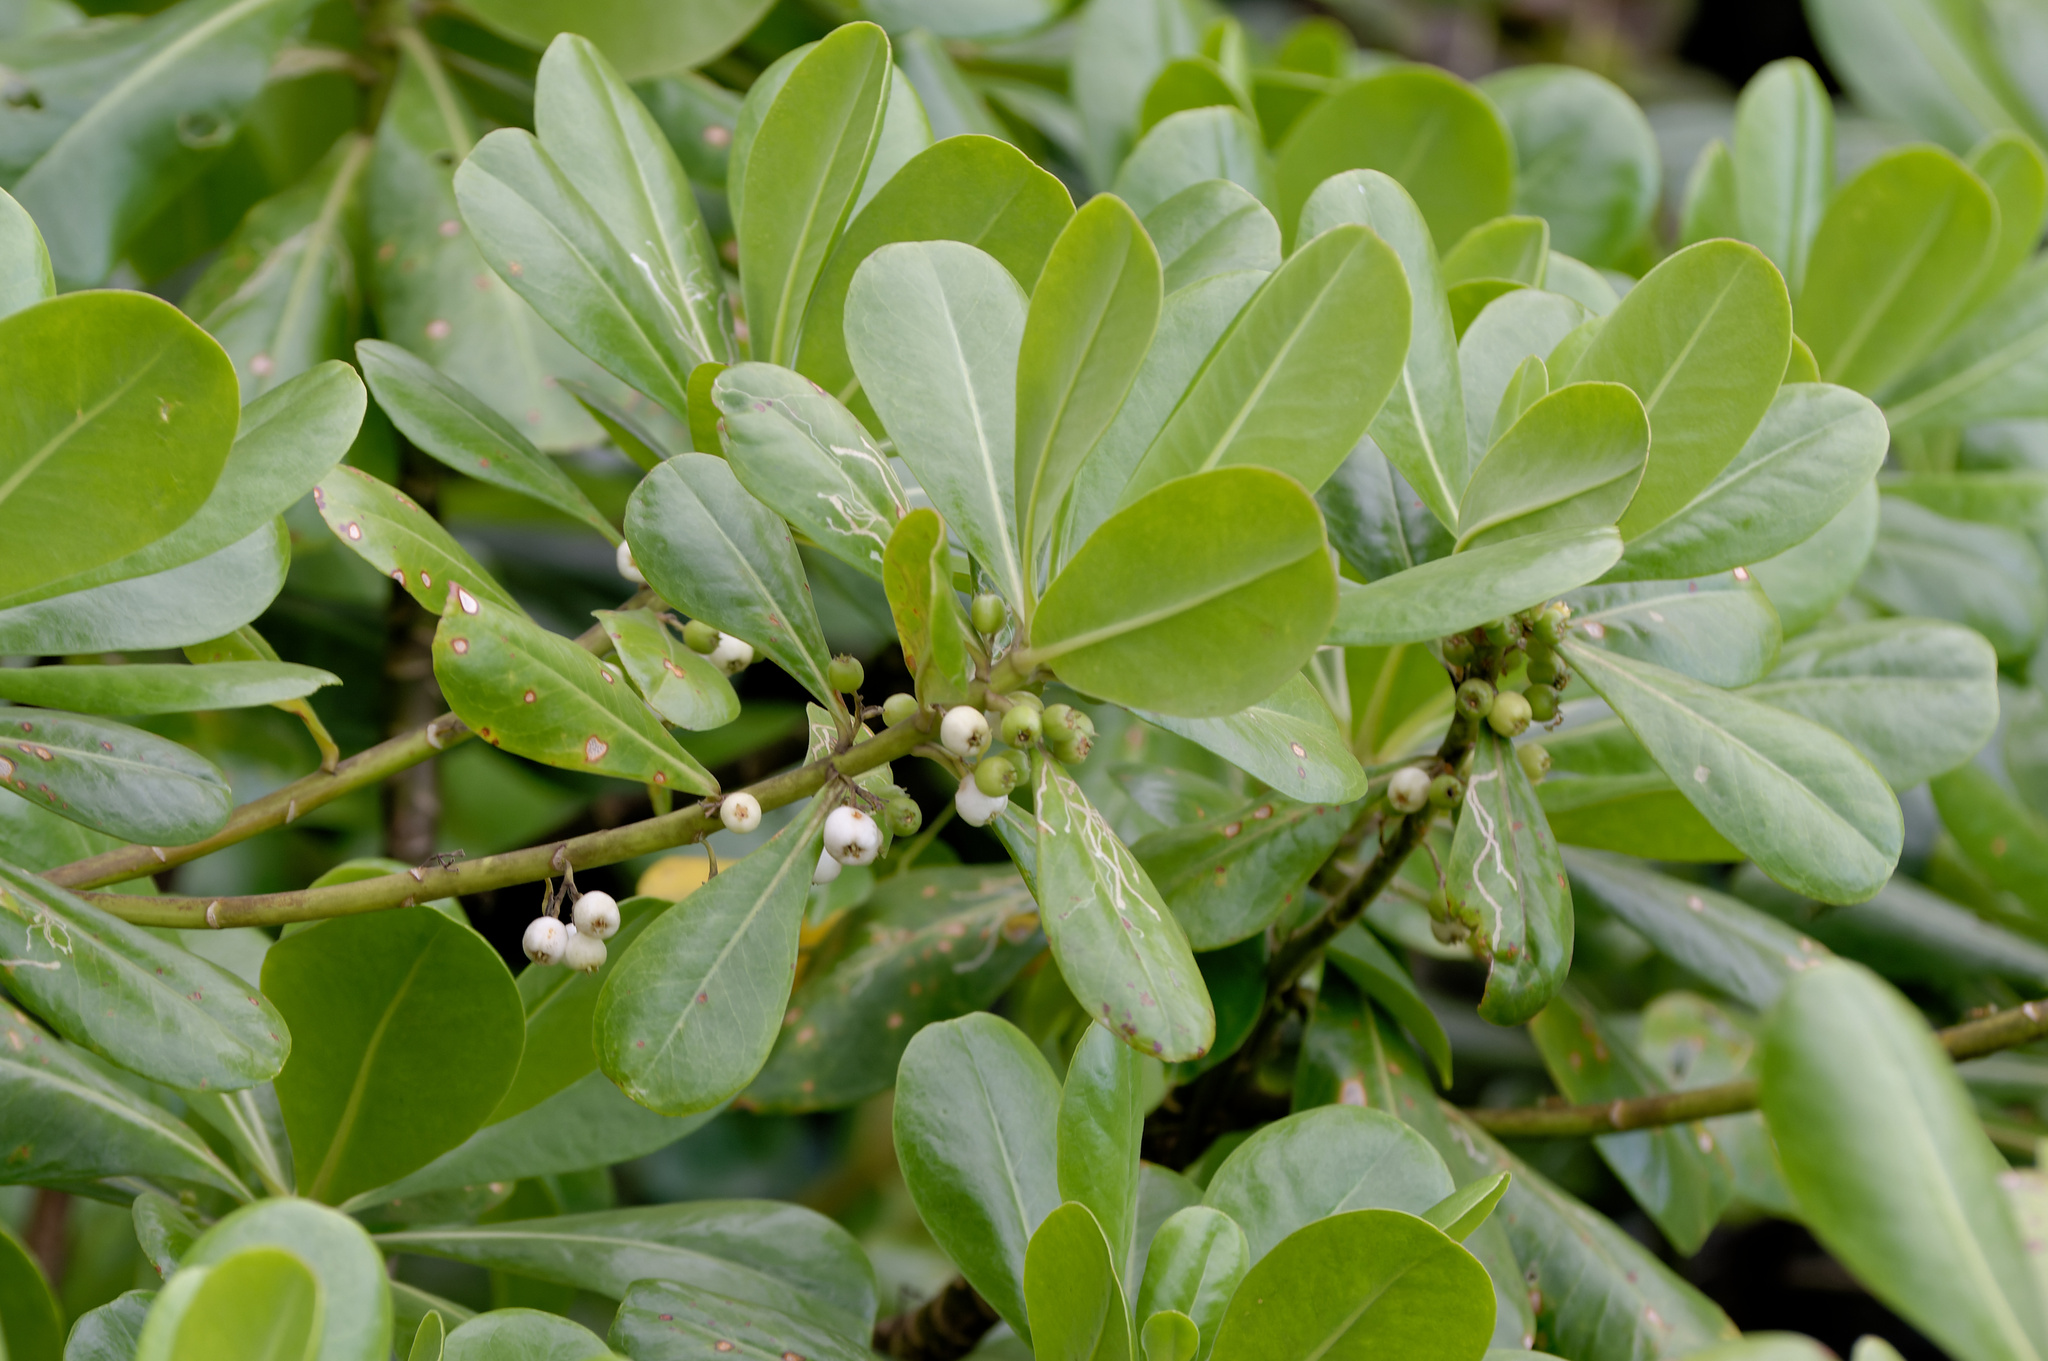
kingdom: Plantae
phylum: Tracheophyta
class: Magnoliopsida
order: Asterales
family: Goodeniaceae
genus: Scaevola
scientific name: Scaevola taccada
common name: Sea lettucetree
